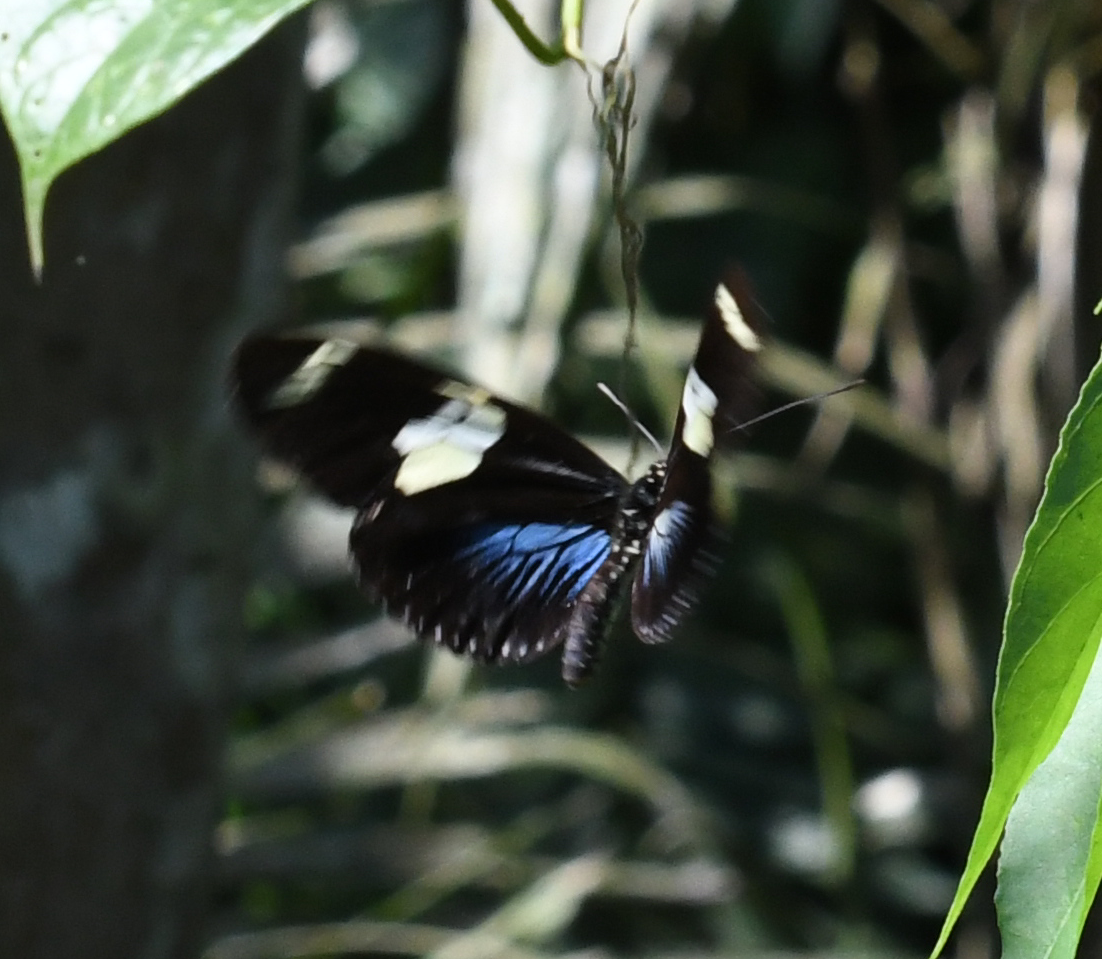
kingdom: Animalia
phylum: Arthropoda
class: Insecta
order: Lepidoptera
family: Nymphalidae
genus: Heliconius
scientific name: Heliconius doris
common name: Doris longwing
